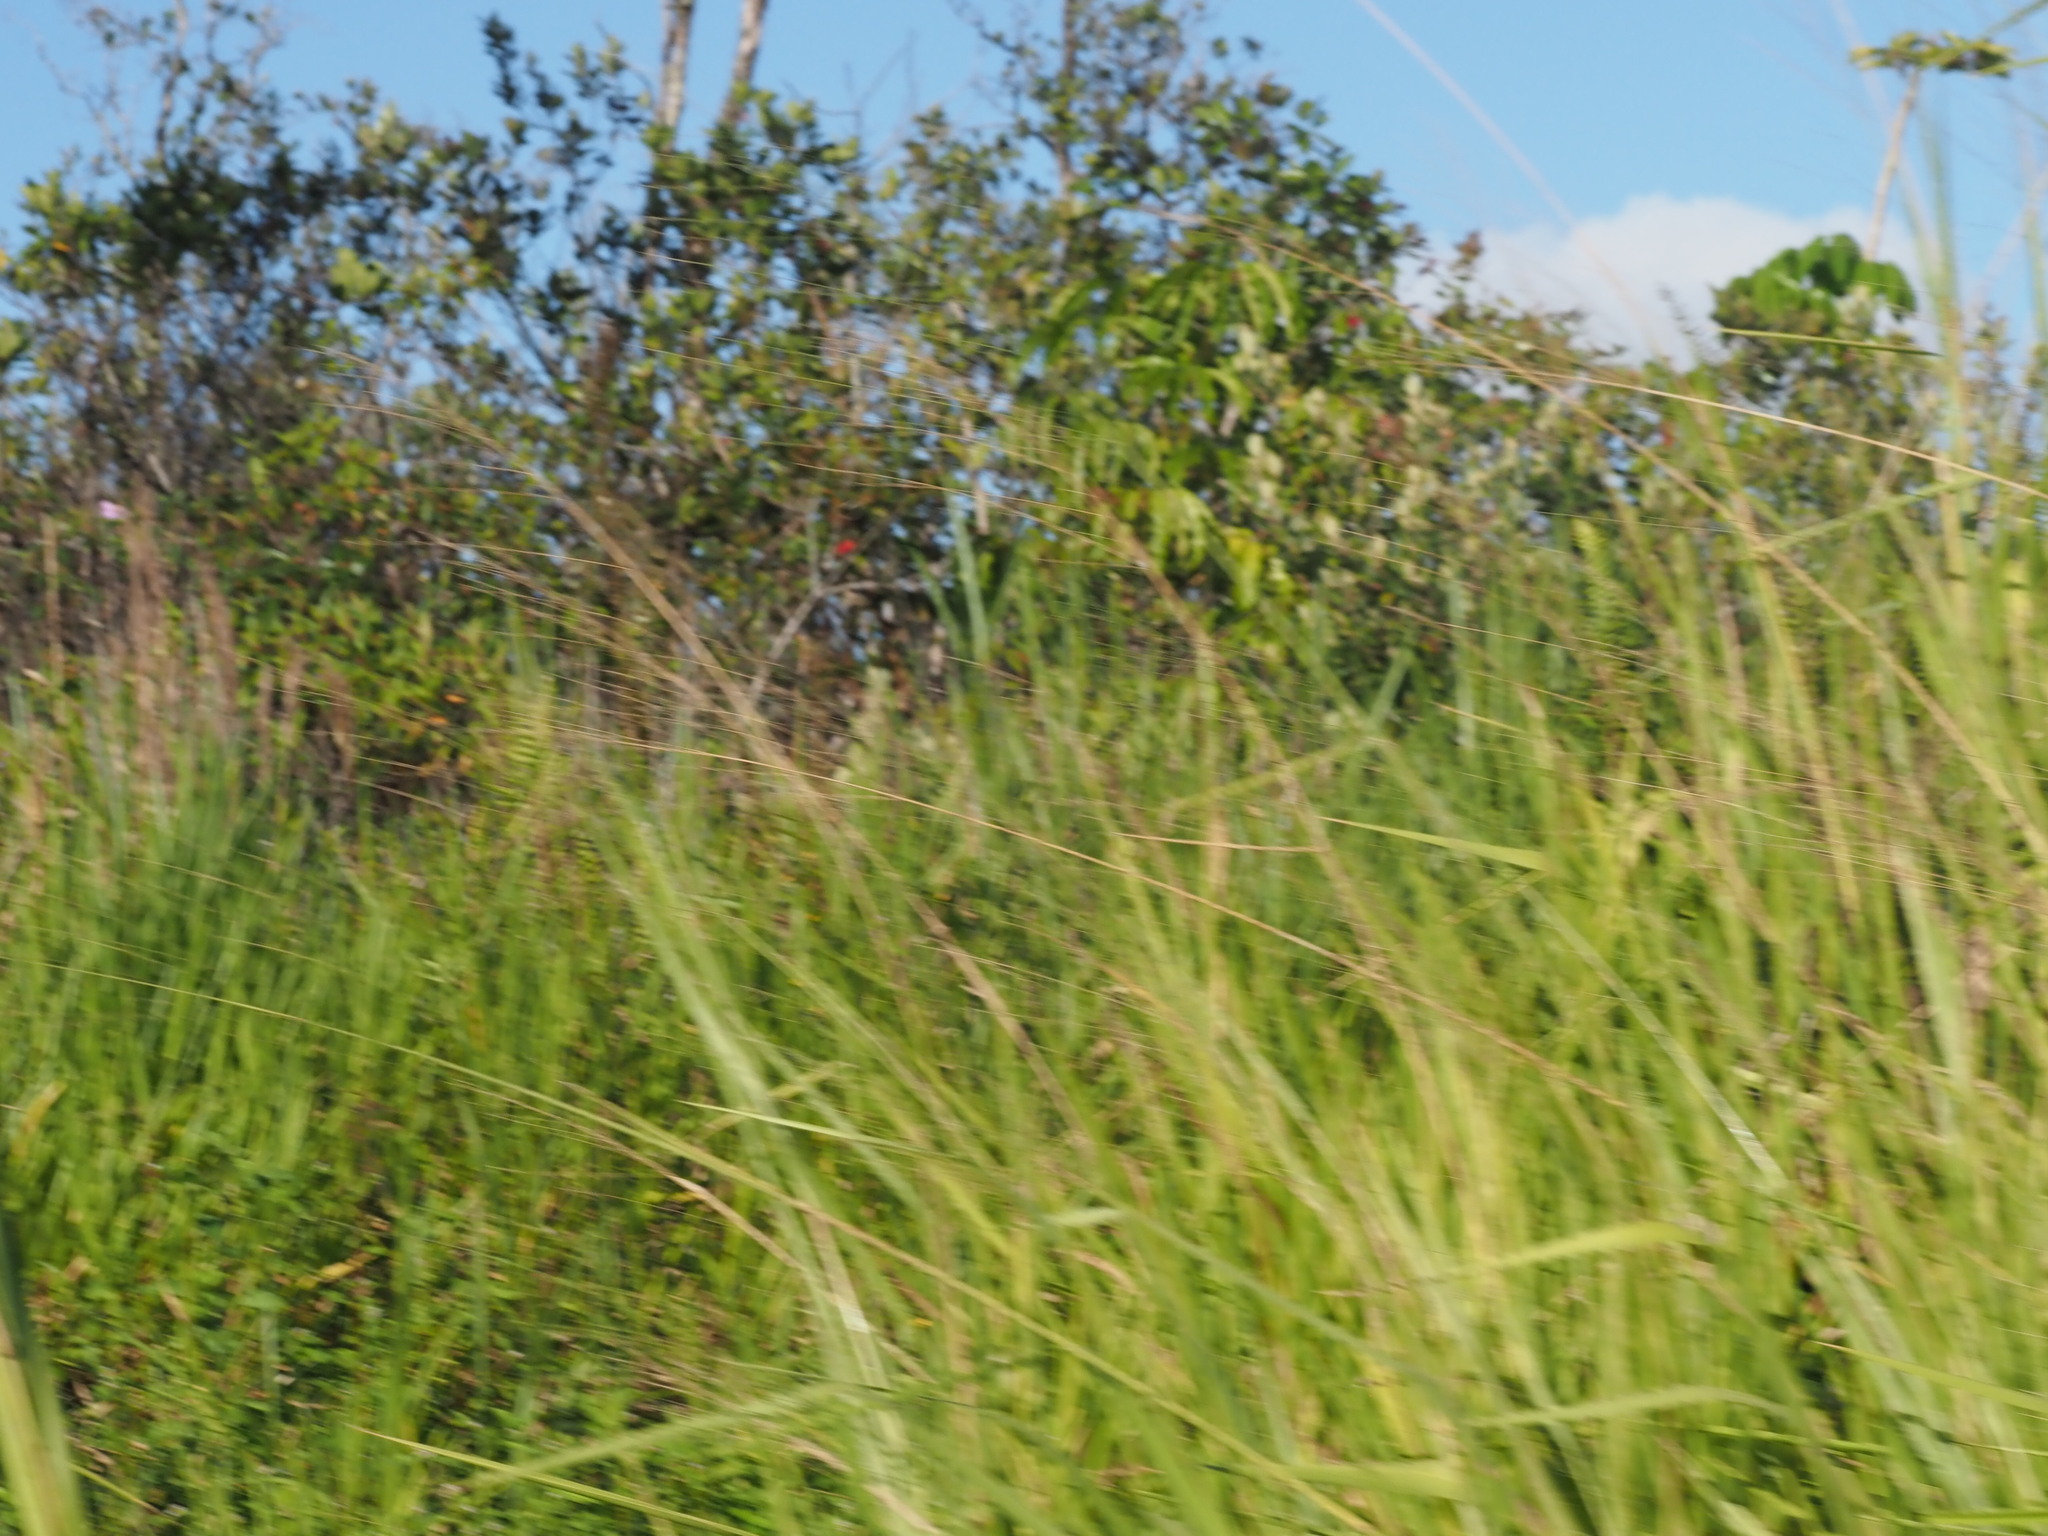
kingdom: Plantae
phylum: Tracheophyta
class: Liliopsida
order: Poales
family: Poaceae
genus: Megathyrsus
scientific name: Megathyrsus maximus
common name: Guineagrass
